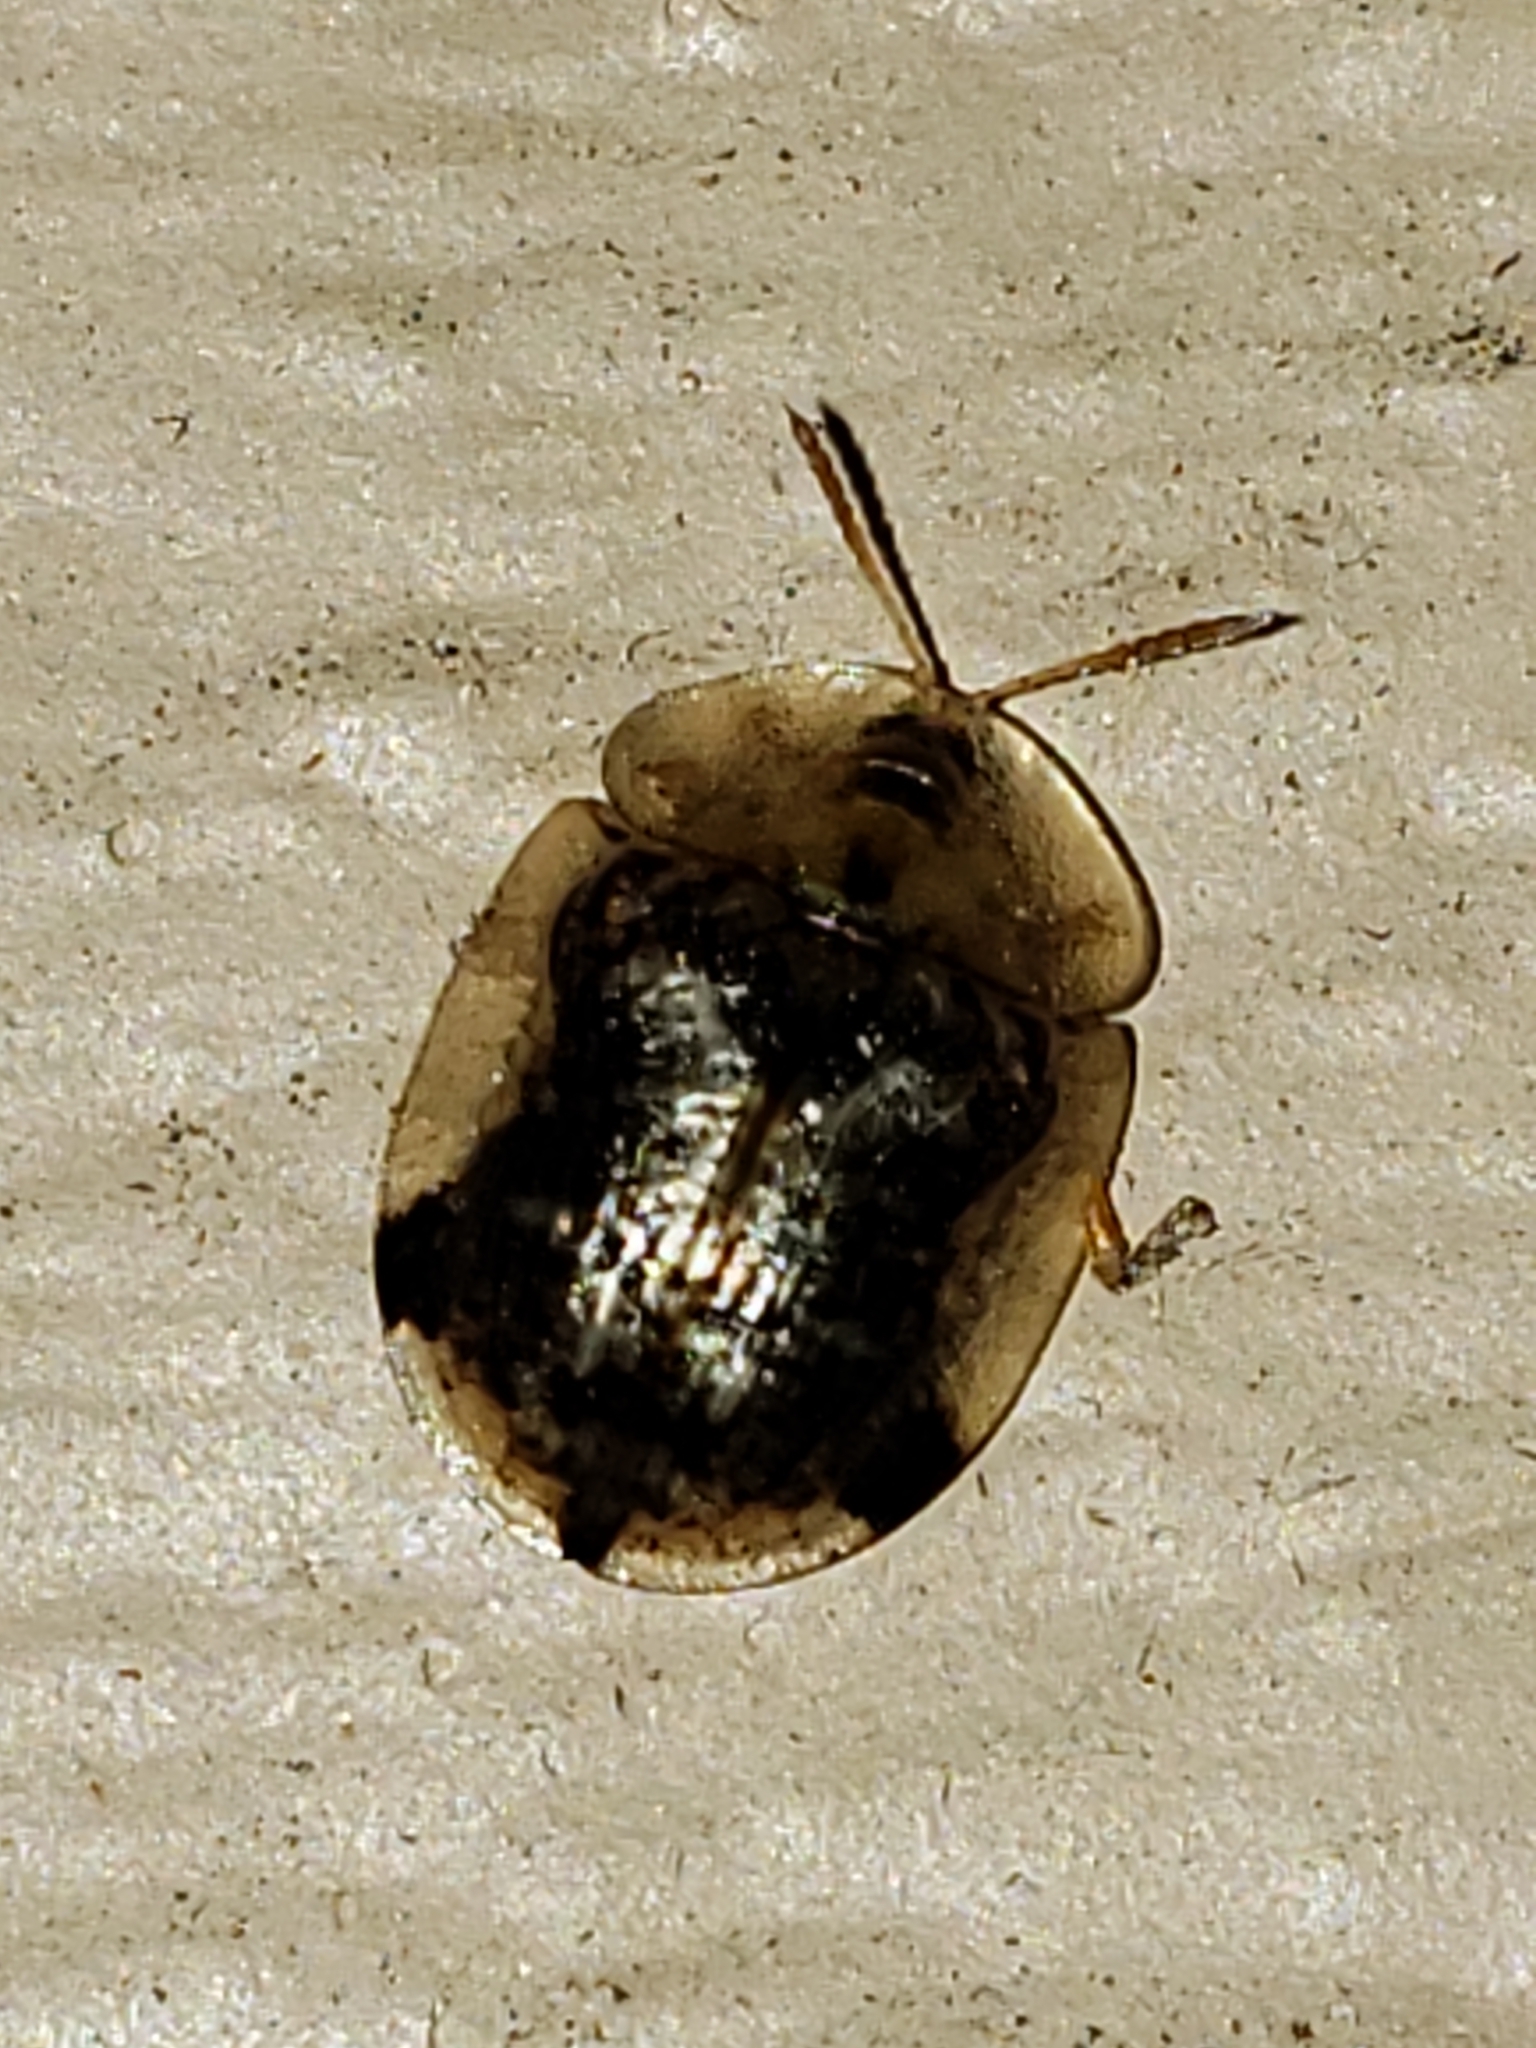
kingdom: Animalia
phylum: Arthropoda
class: Insecta
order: Coleoptera
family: Chrysomelidae
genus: Cassida
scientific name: Cassida piperata
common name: Small tortoise beetle
